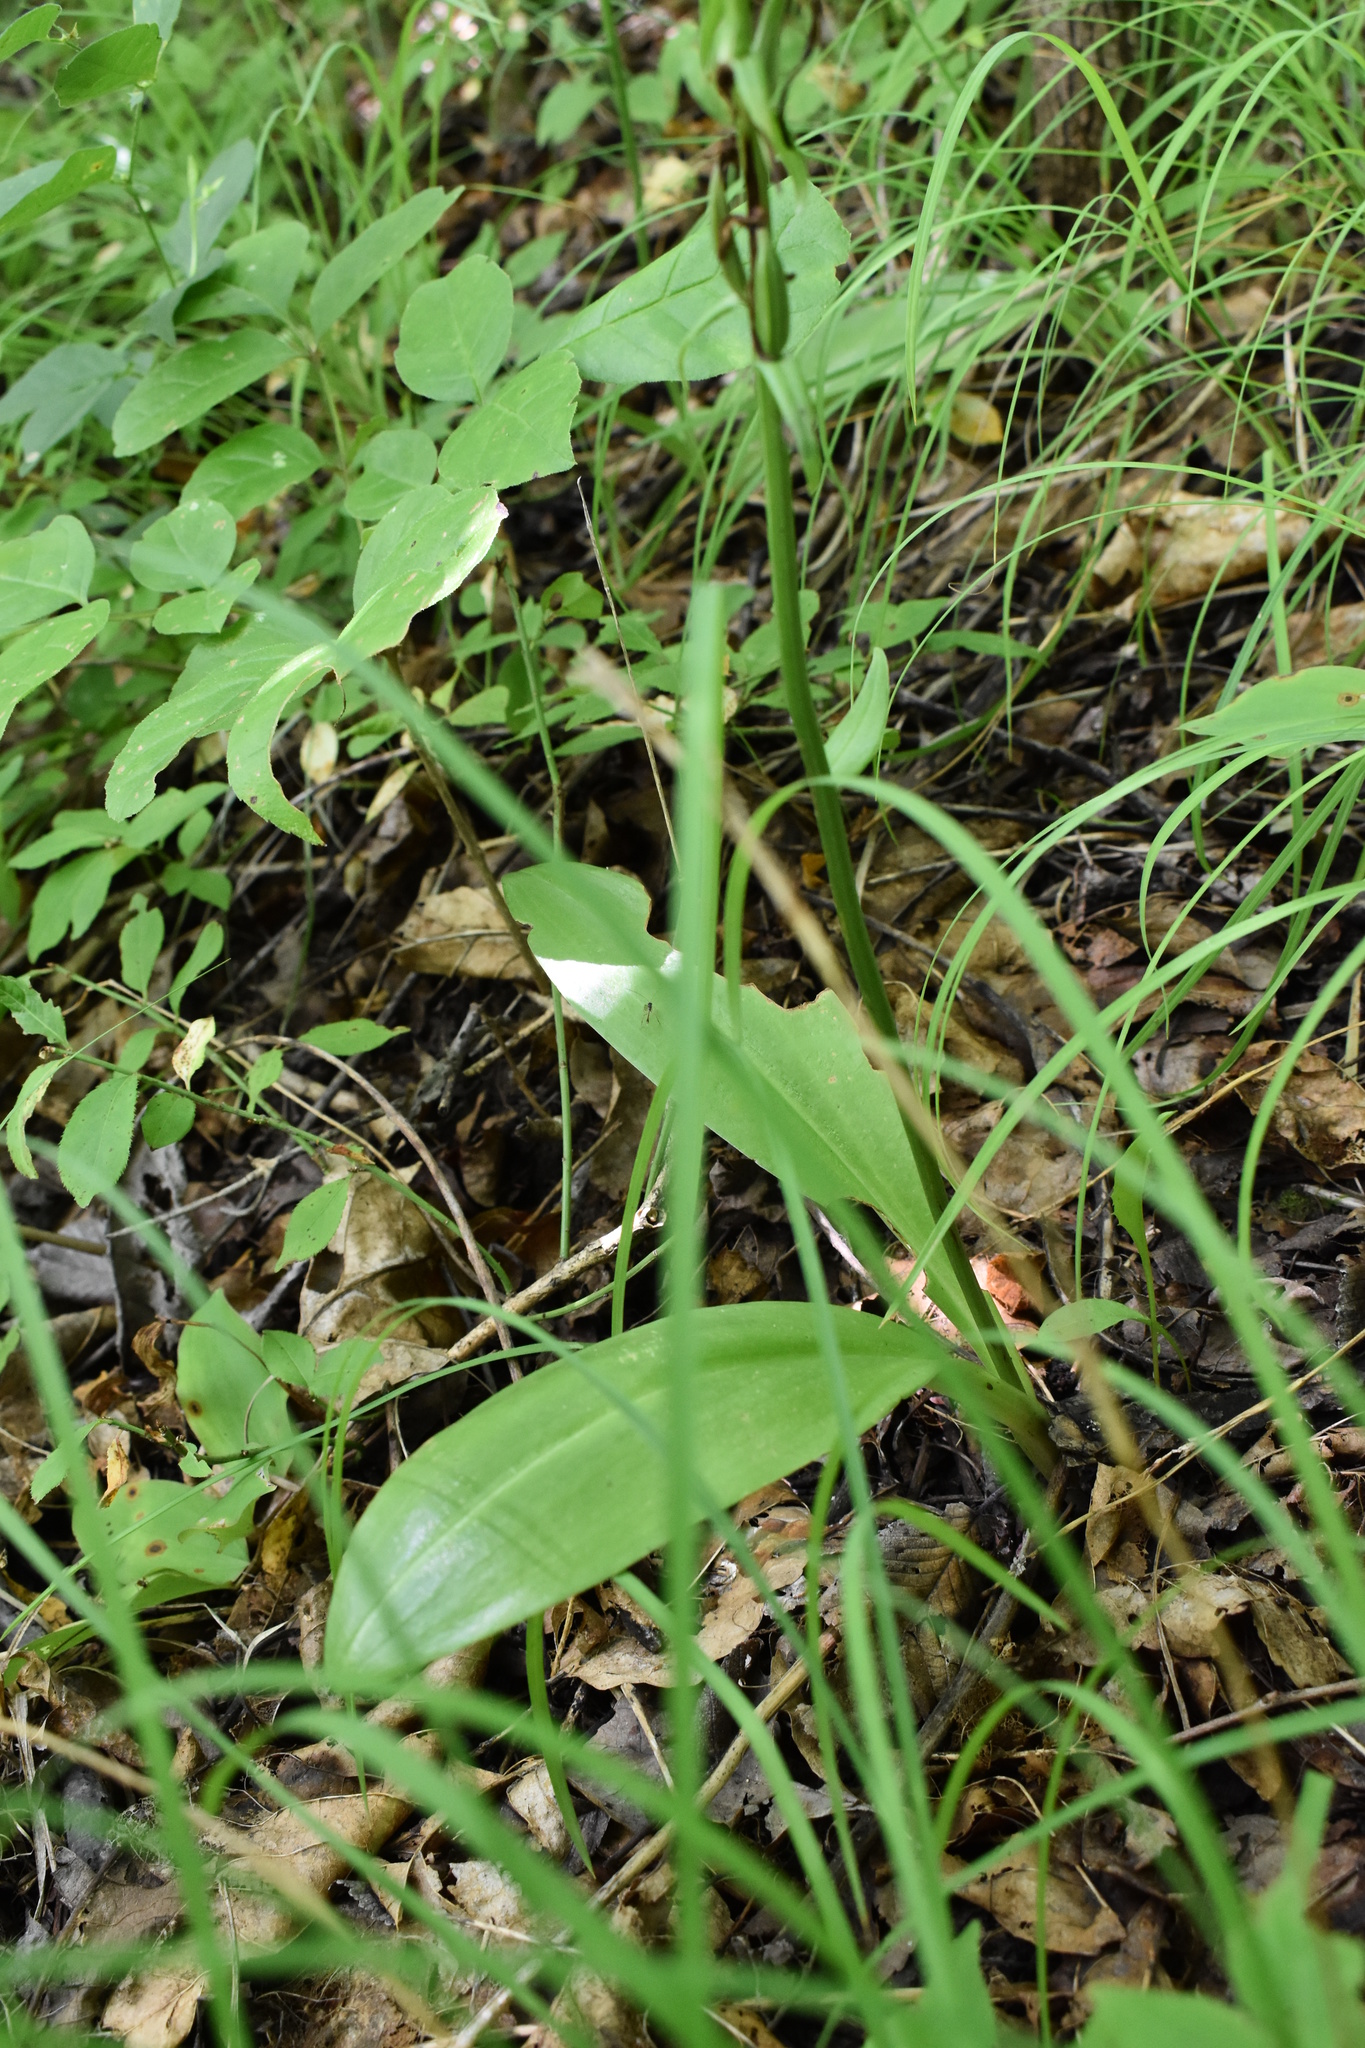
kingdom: Plantae
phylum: Tracheophyta
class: Liliopsida
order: Asparagales
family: Orchidaceae
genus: Platanthera
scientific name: Platanthera densa
